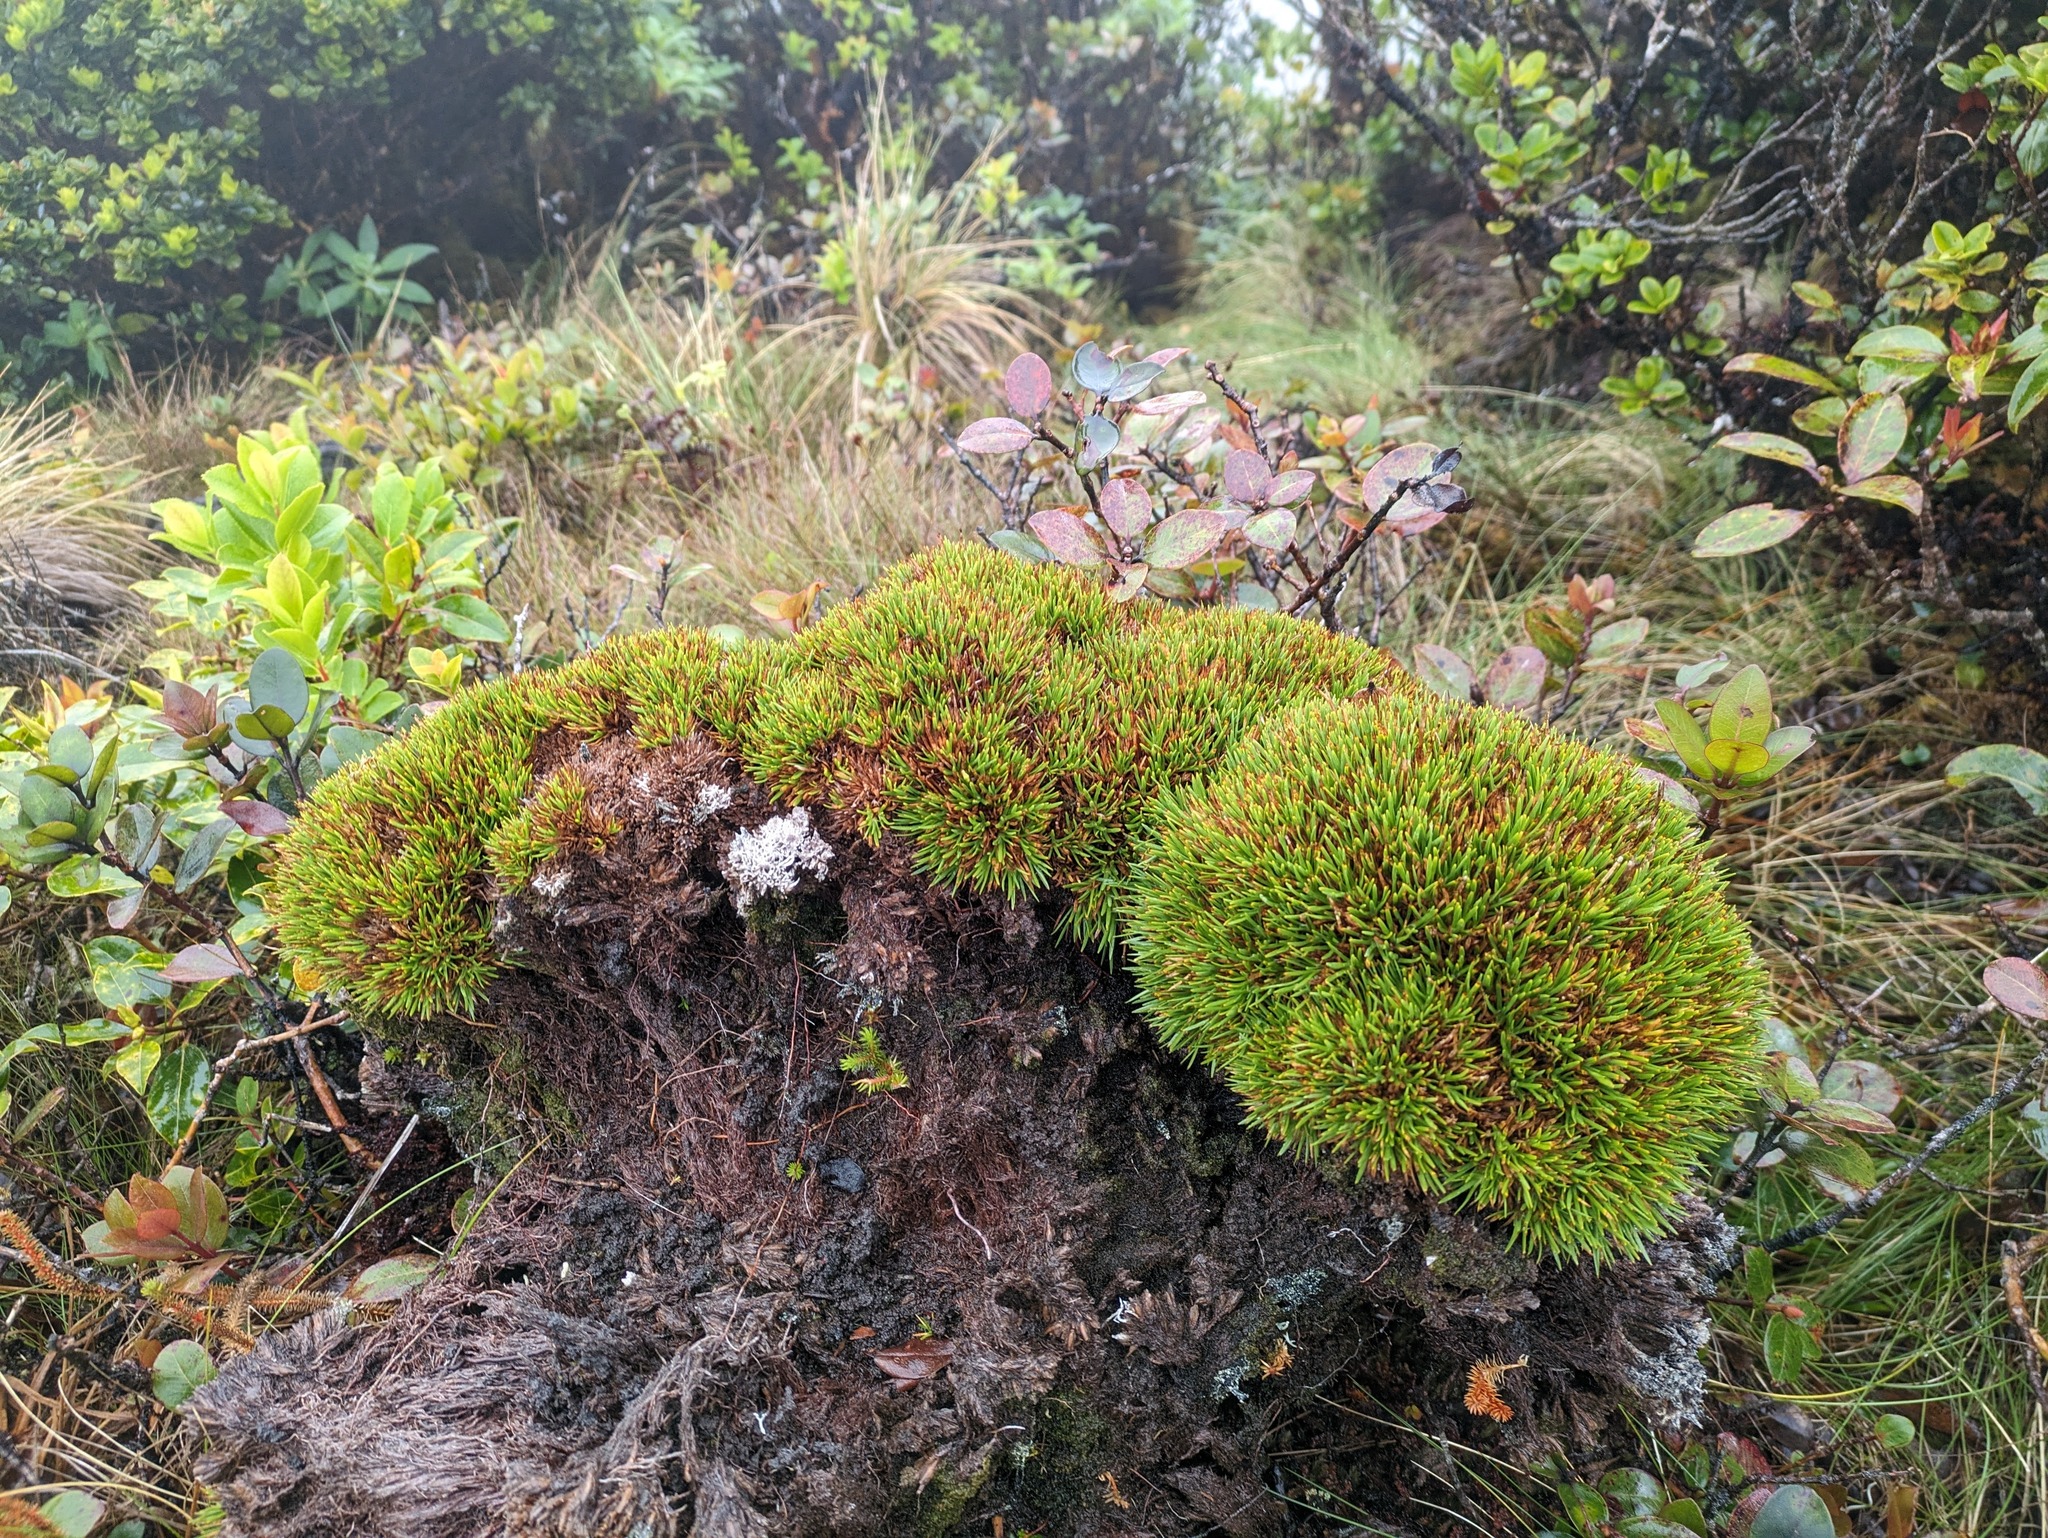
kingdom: Plantae
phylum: Tracheophyta
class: Liliopsida
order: Poales
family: Cyperaceae
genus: Oreobolus
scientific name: Oreobolus furcatus
